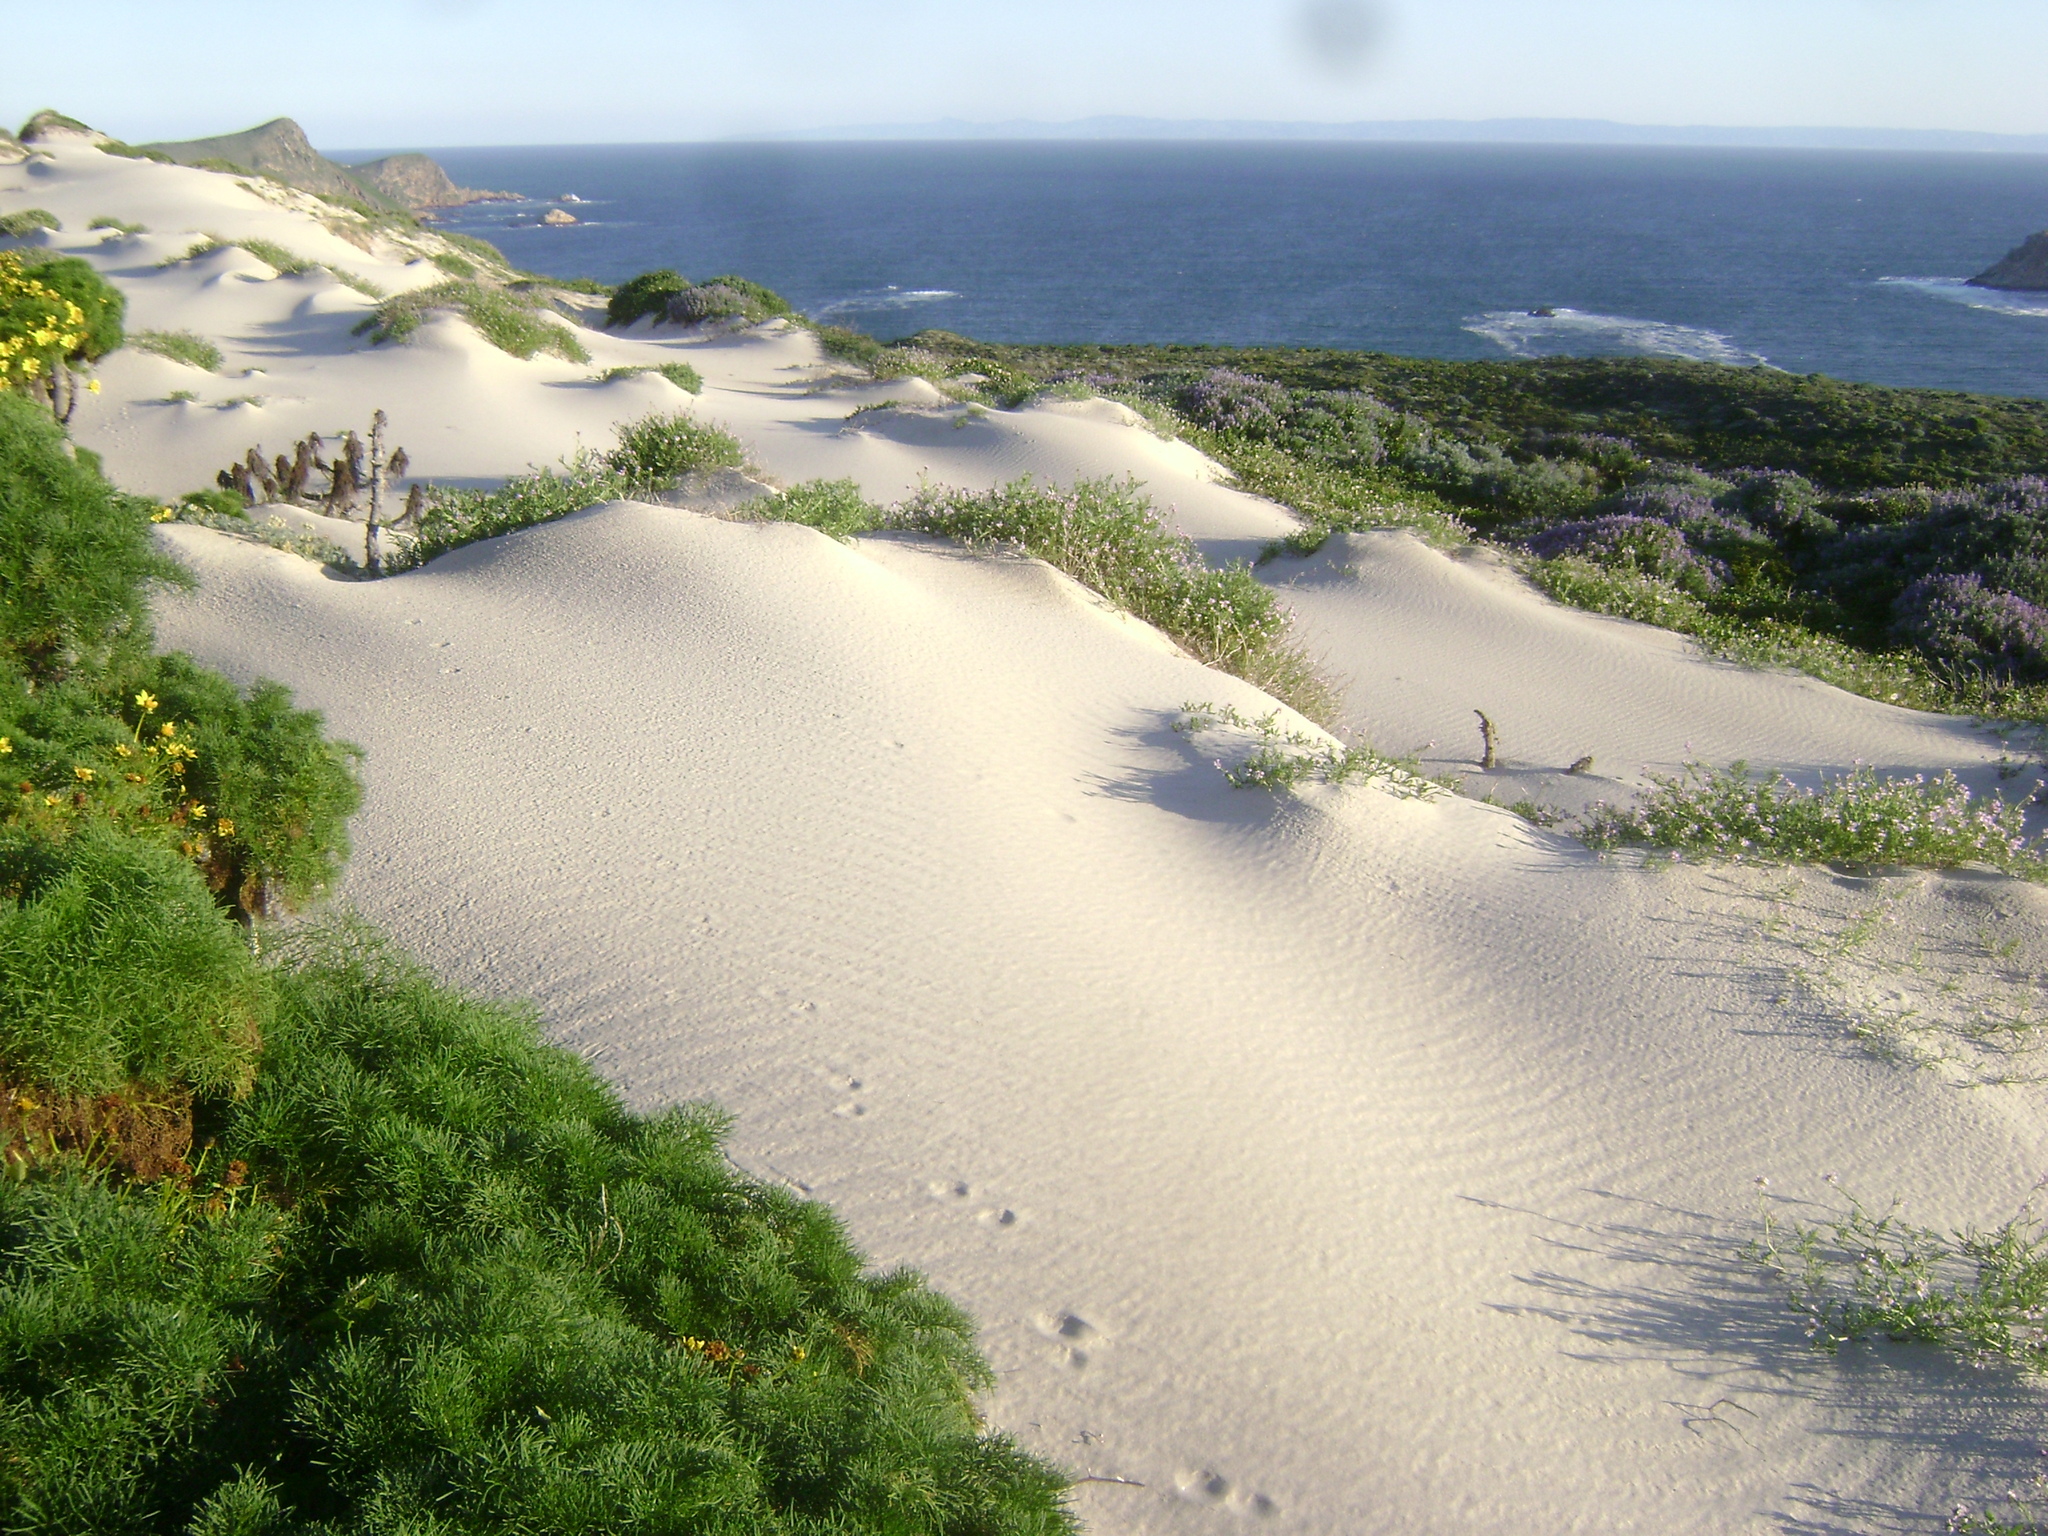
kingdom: Plantae
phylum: Tracheophyta
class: Magnoliopsida
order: Asterales
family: Asteraceae
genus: Coreopsis
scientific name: Coreopsis gigantea
